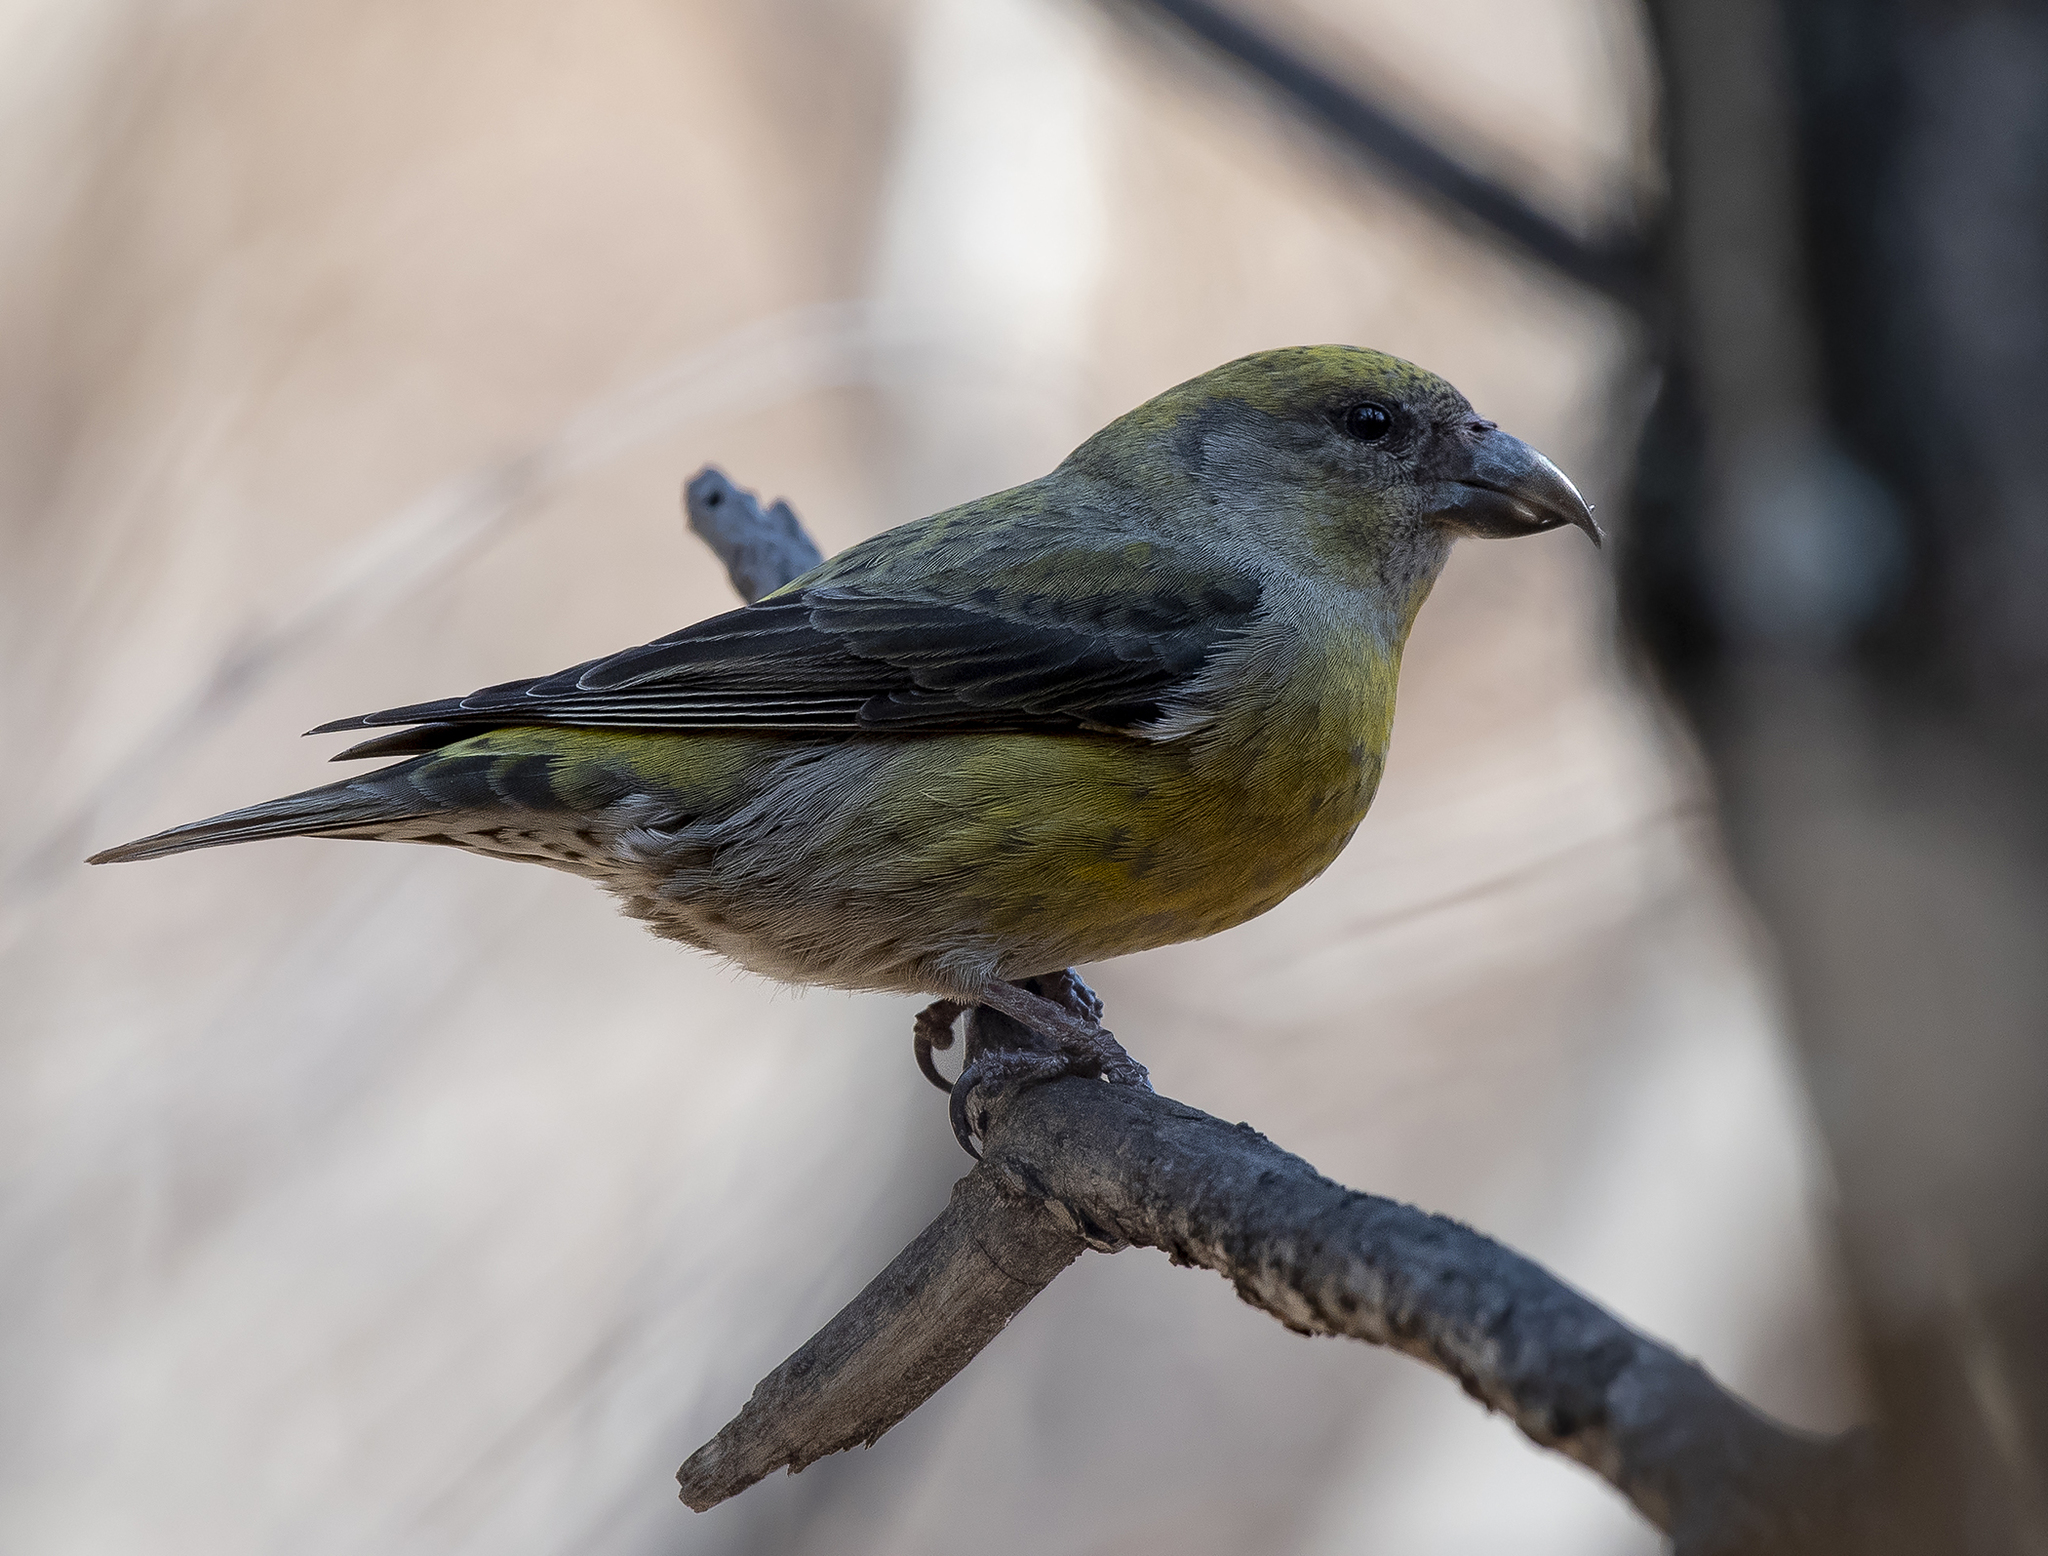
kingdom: Animalia
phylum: Chordata
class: Aves
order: Passeriformes
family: Fringillidae
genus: Loxia
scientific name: Loxia curvirostra
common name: Red crossbill
